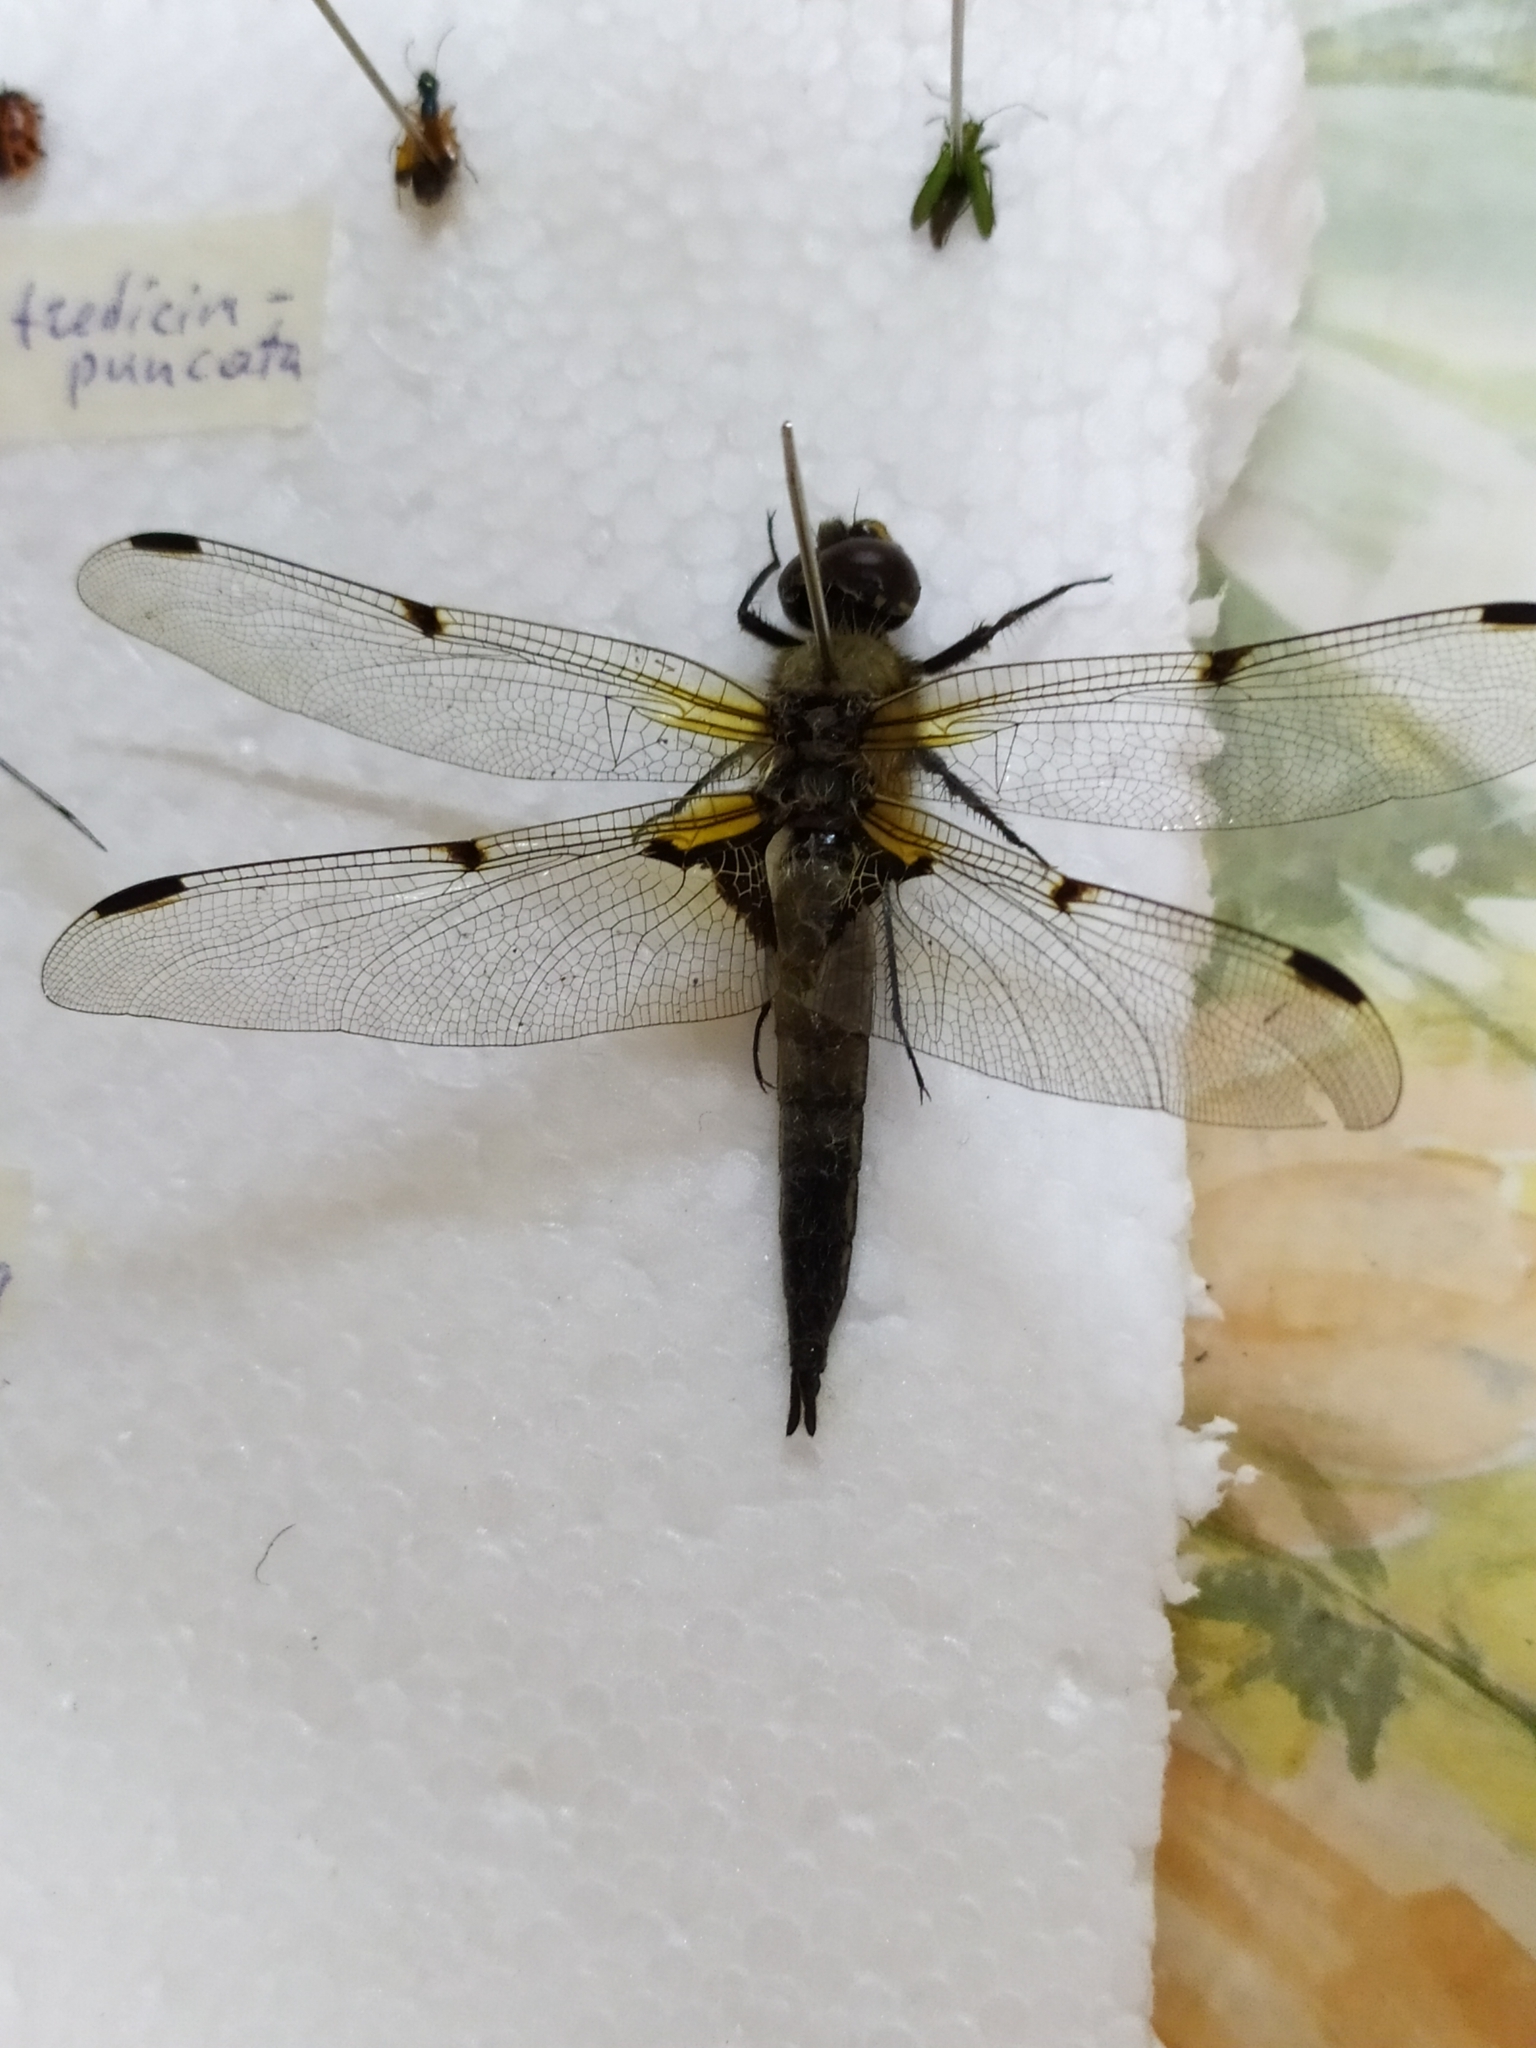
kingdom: Animalia
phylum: Arthropoda
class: Insecta
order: Odonata
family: Libellulidae
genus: Libellula
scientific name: Libellula quadrimaculata
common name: Four-spotted chaser
